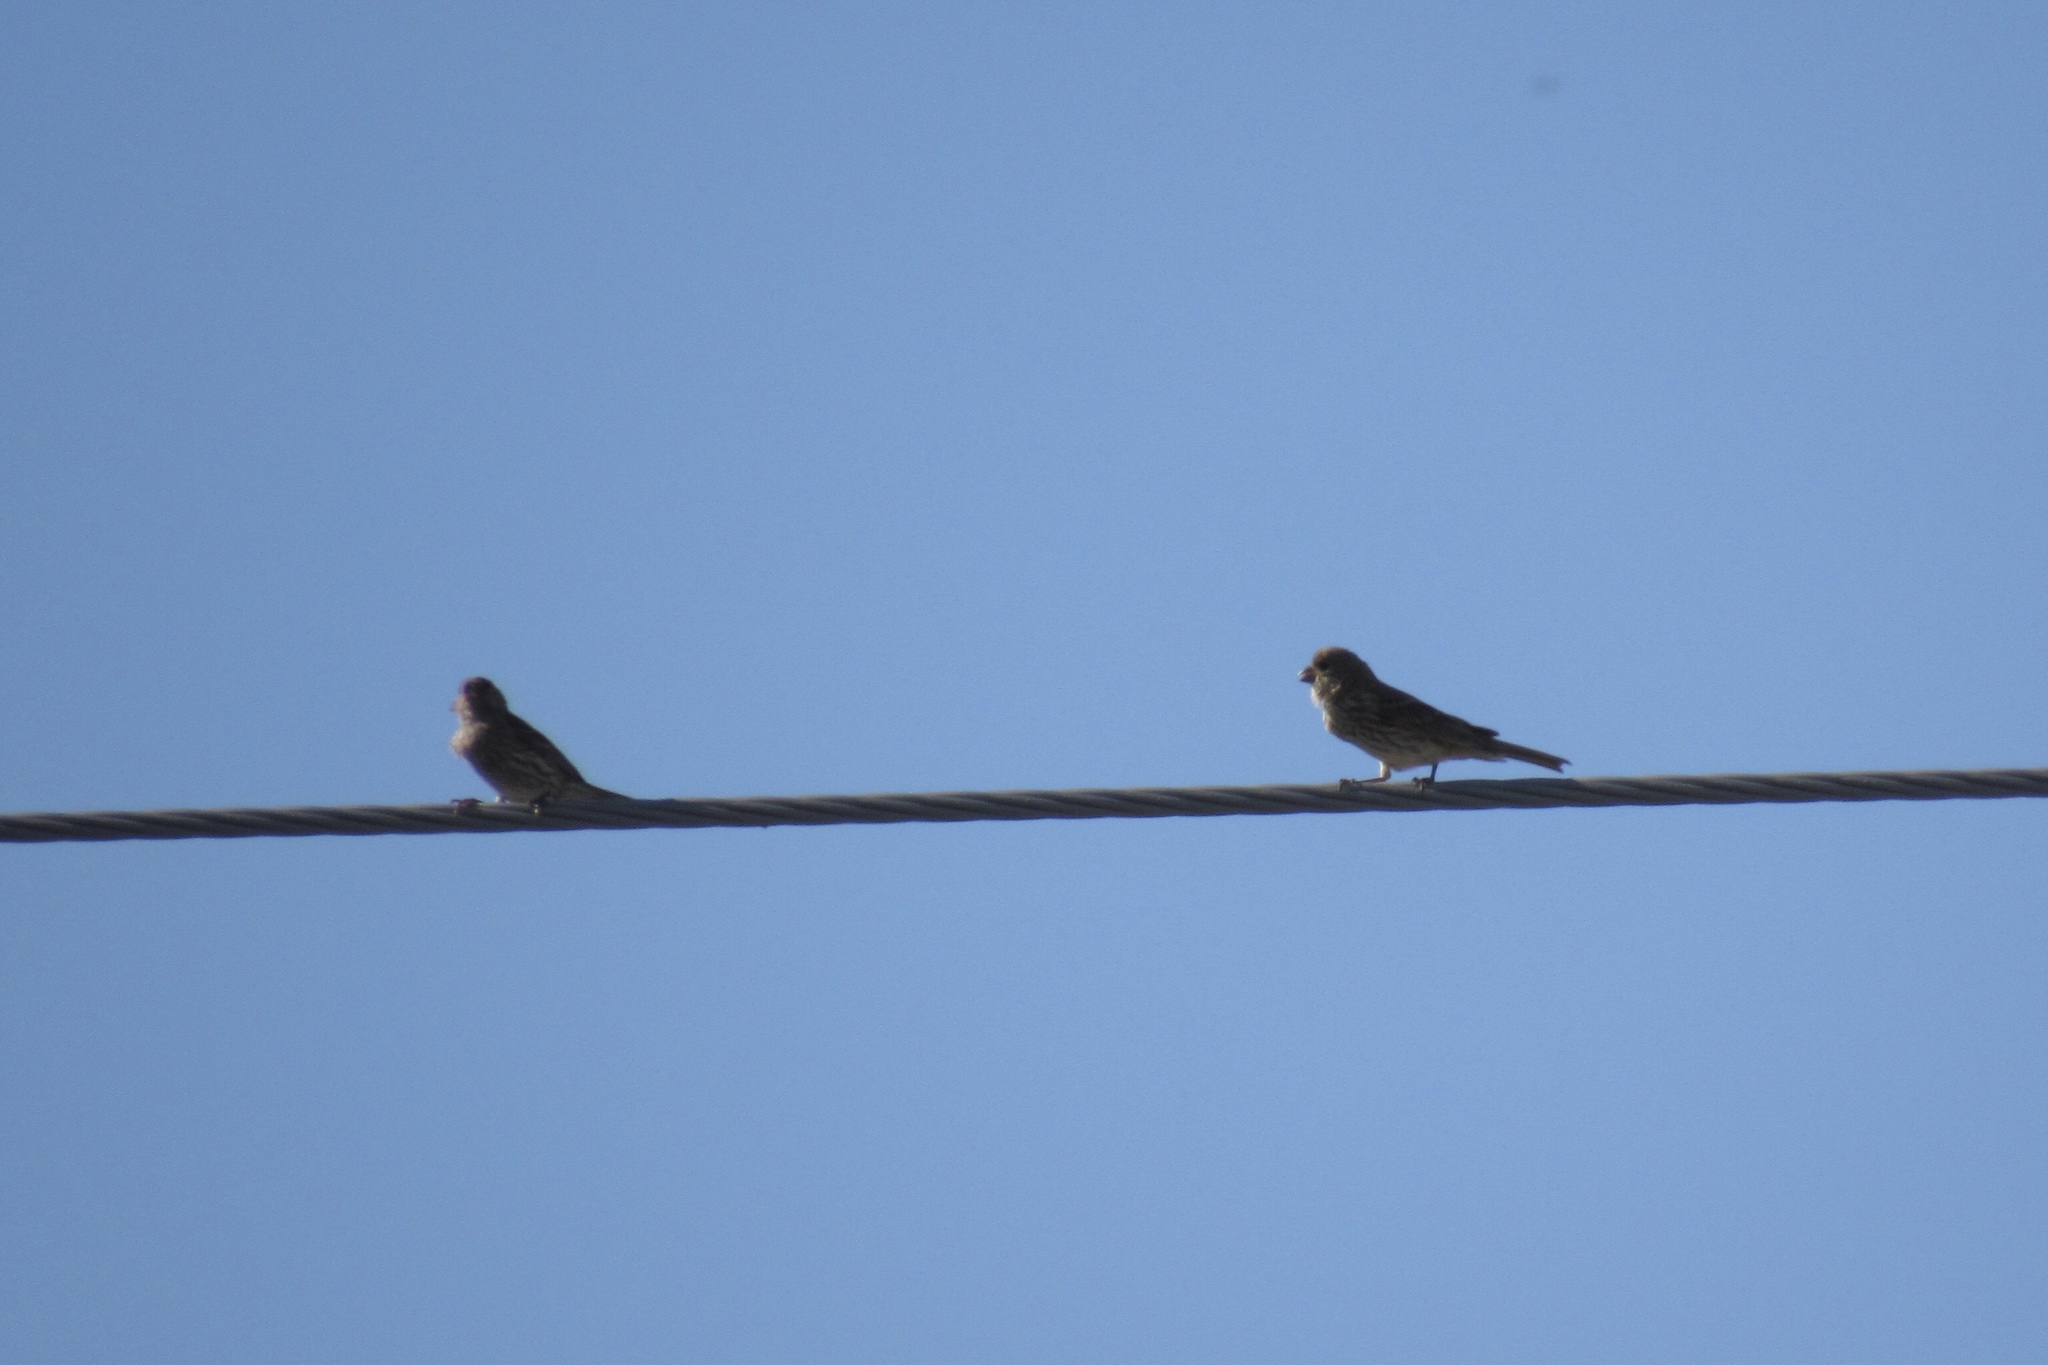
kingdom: Animalia
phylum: Chordata
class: Aves
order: Passeriformes
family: Fringillidae
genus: Haemorhous
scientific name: Haemorhous mexicanus
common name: House finch
